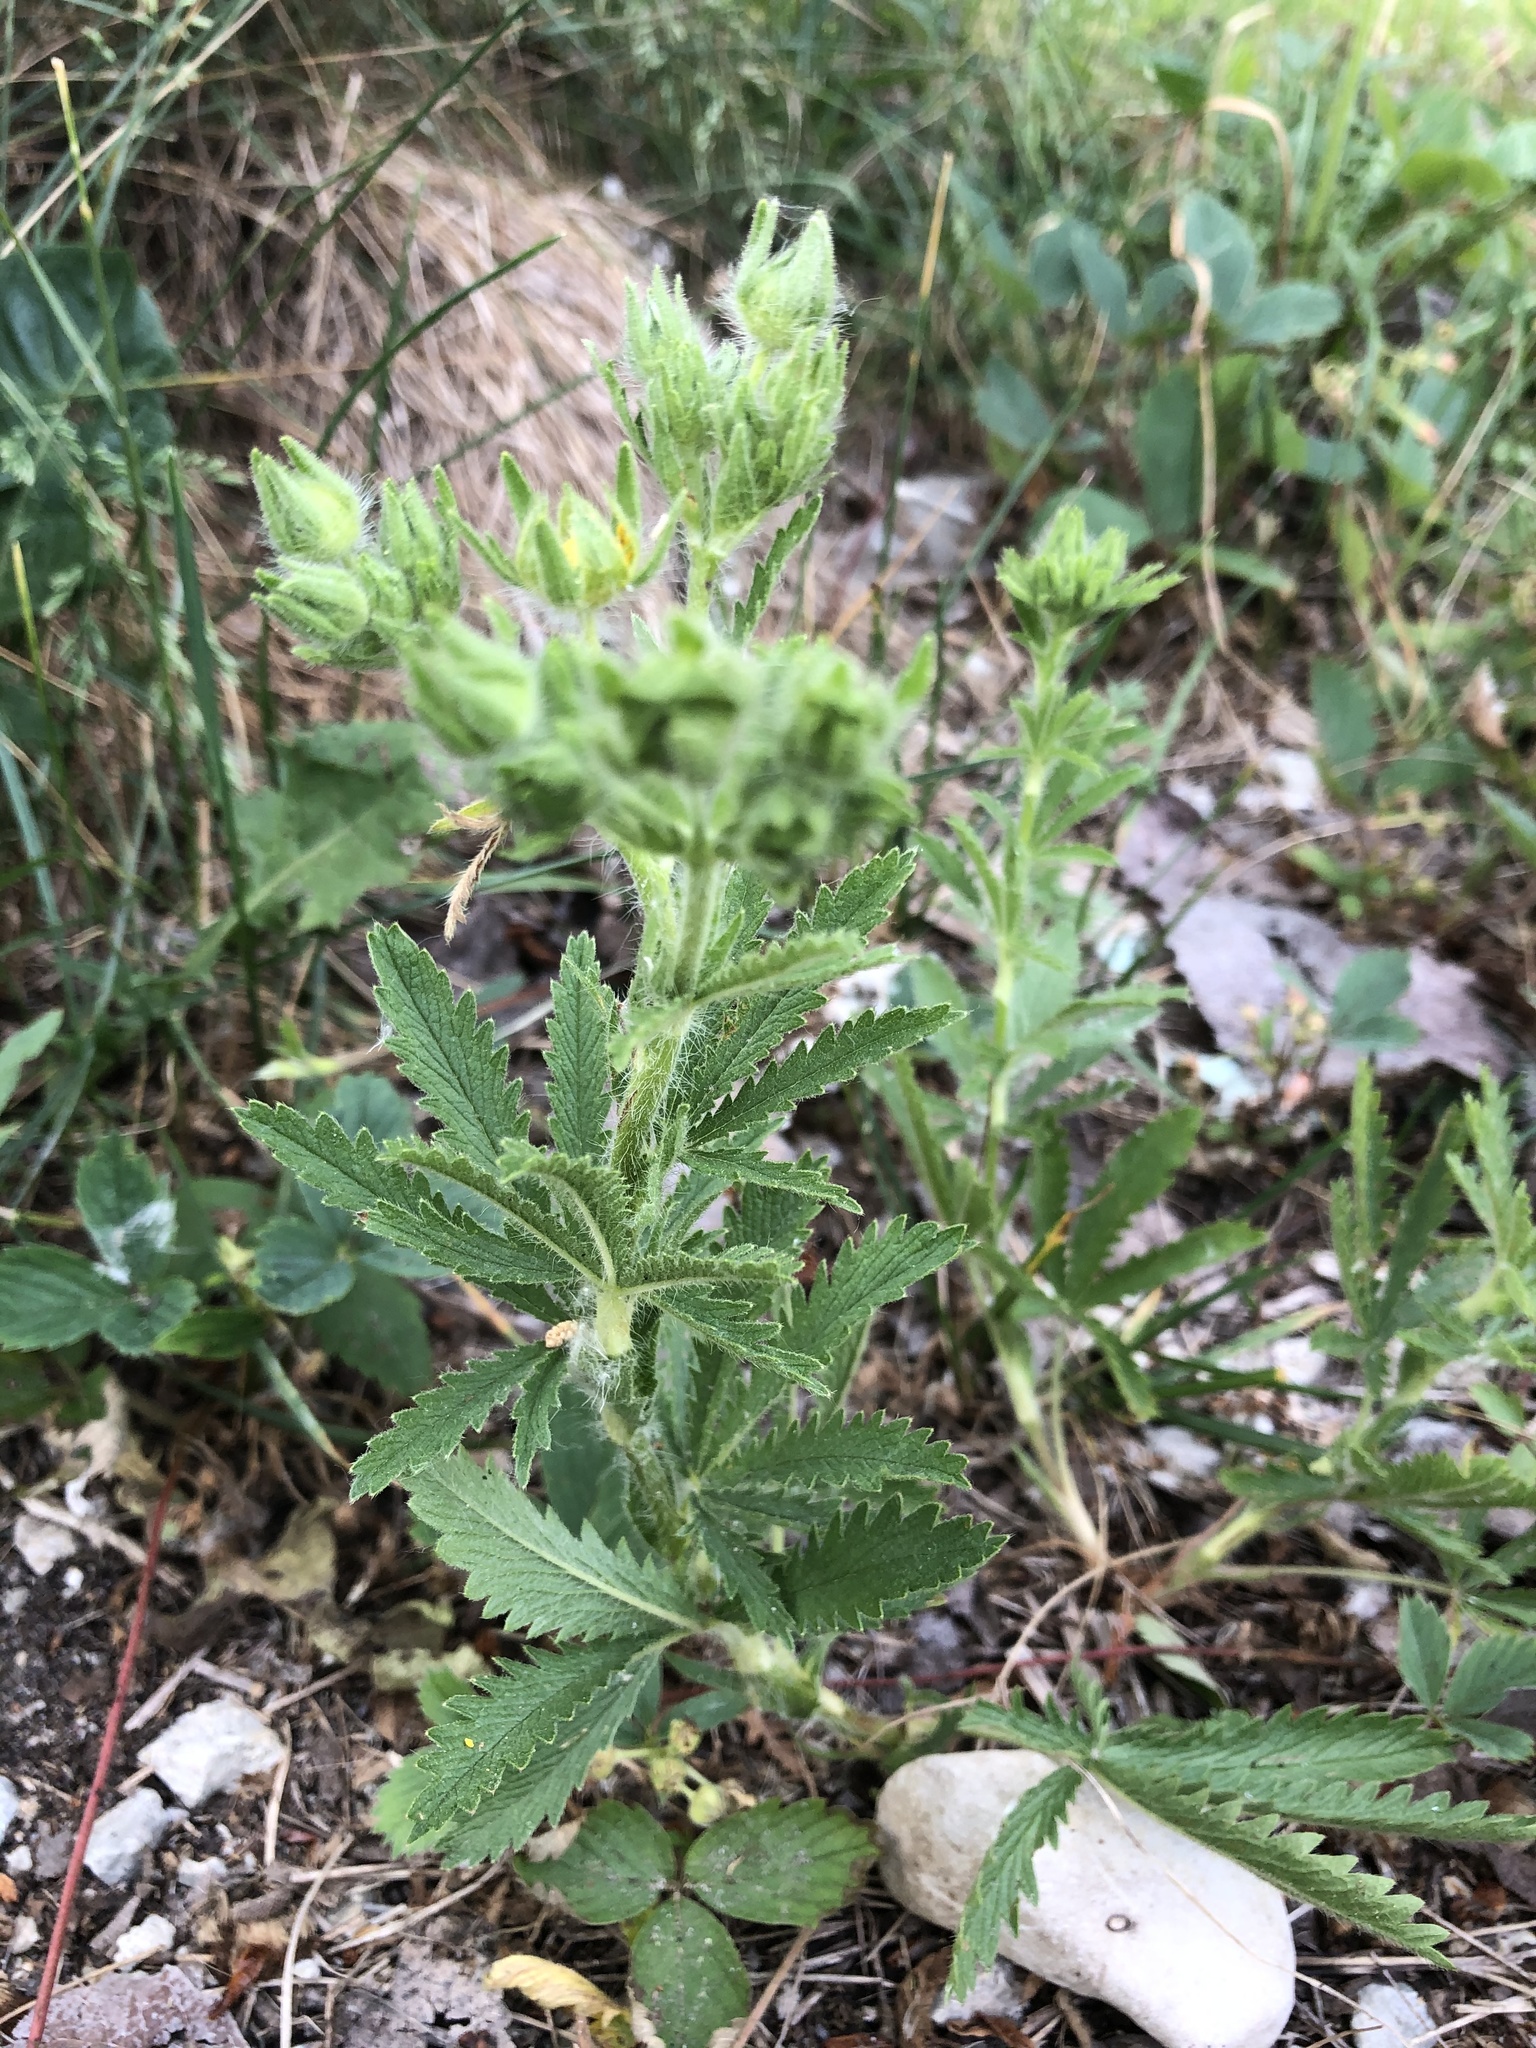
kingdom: Plantae
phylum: Tracheophyta
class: Magnoliopsida
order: Rosales
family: Rosaceae
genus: Potentilla
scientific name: Potentilla norvegica
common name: Ternate-leaved cinquefoil
